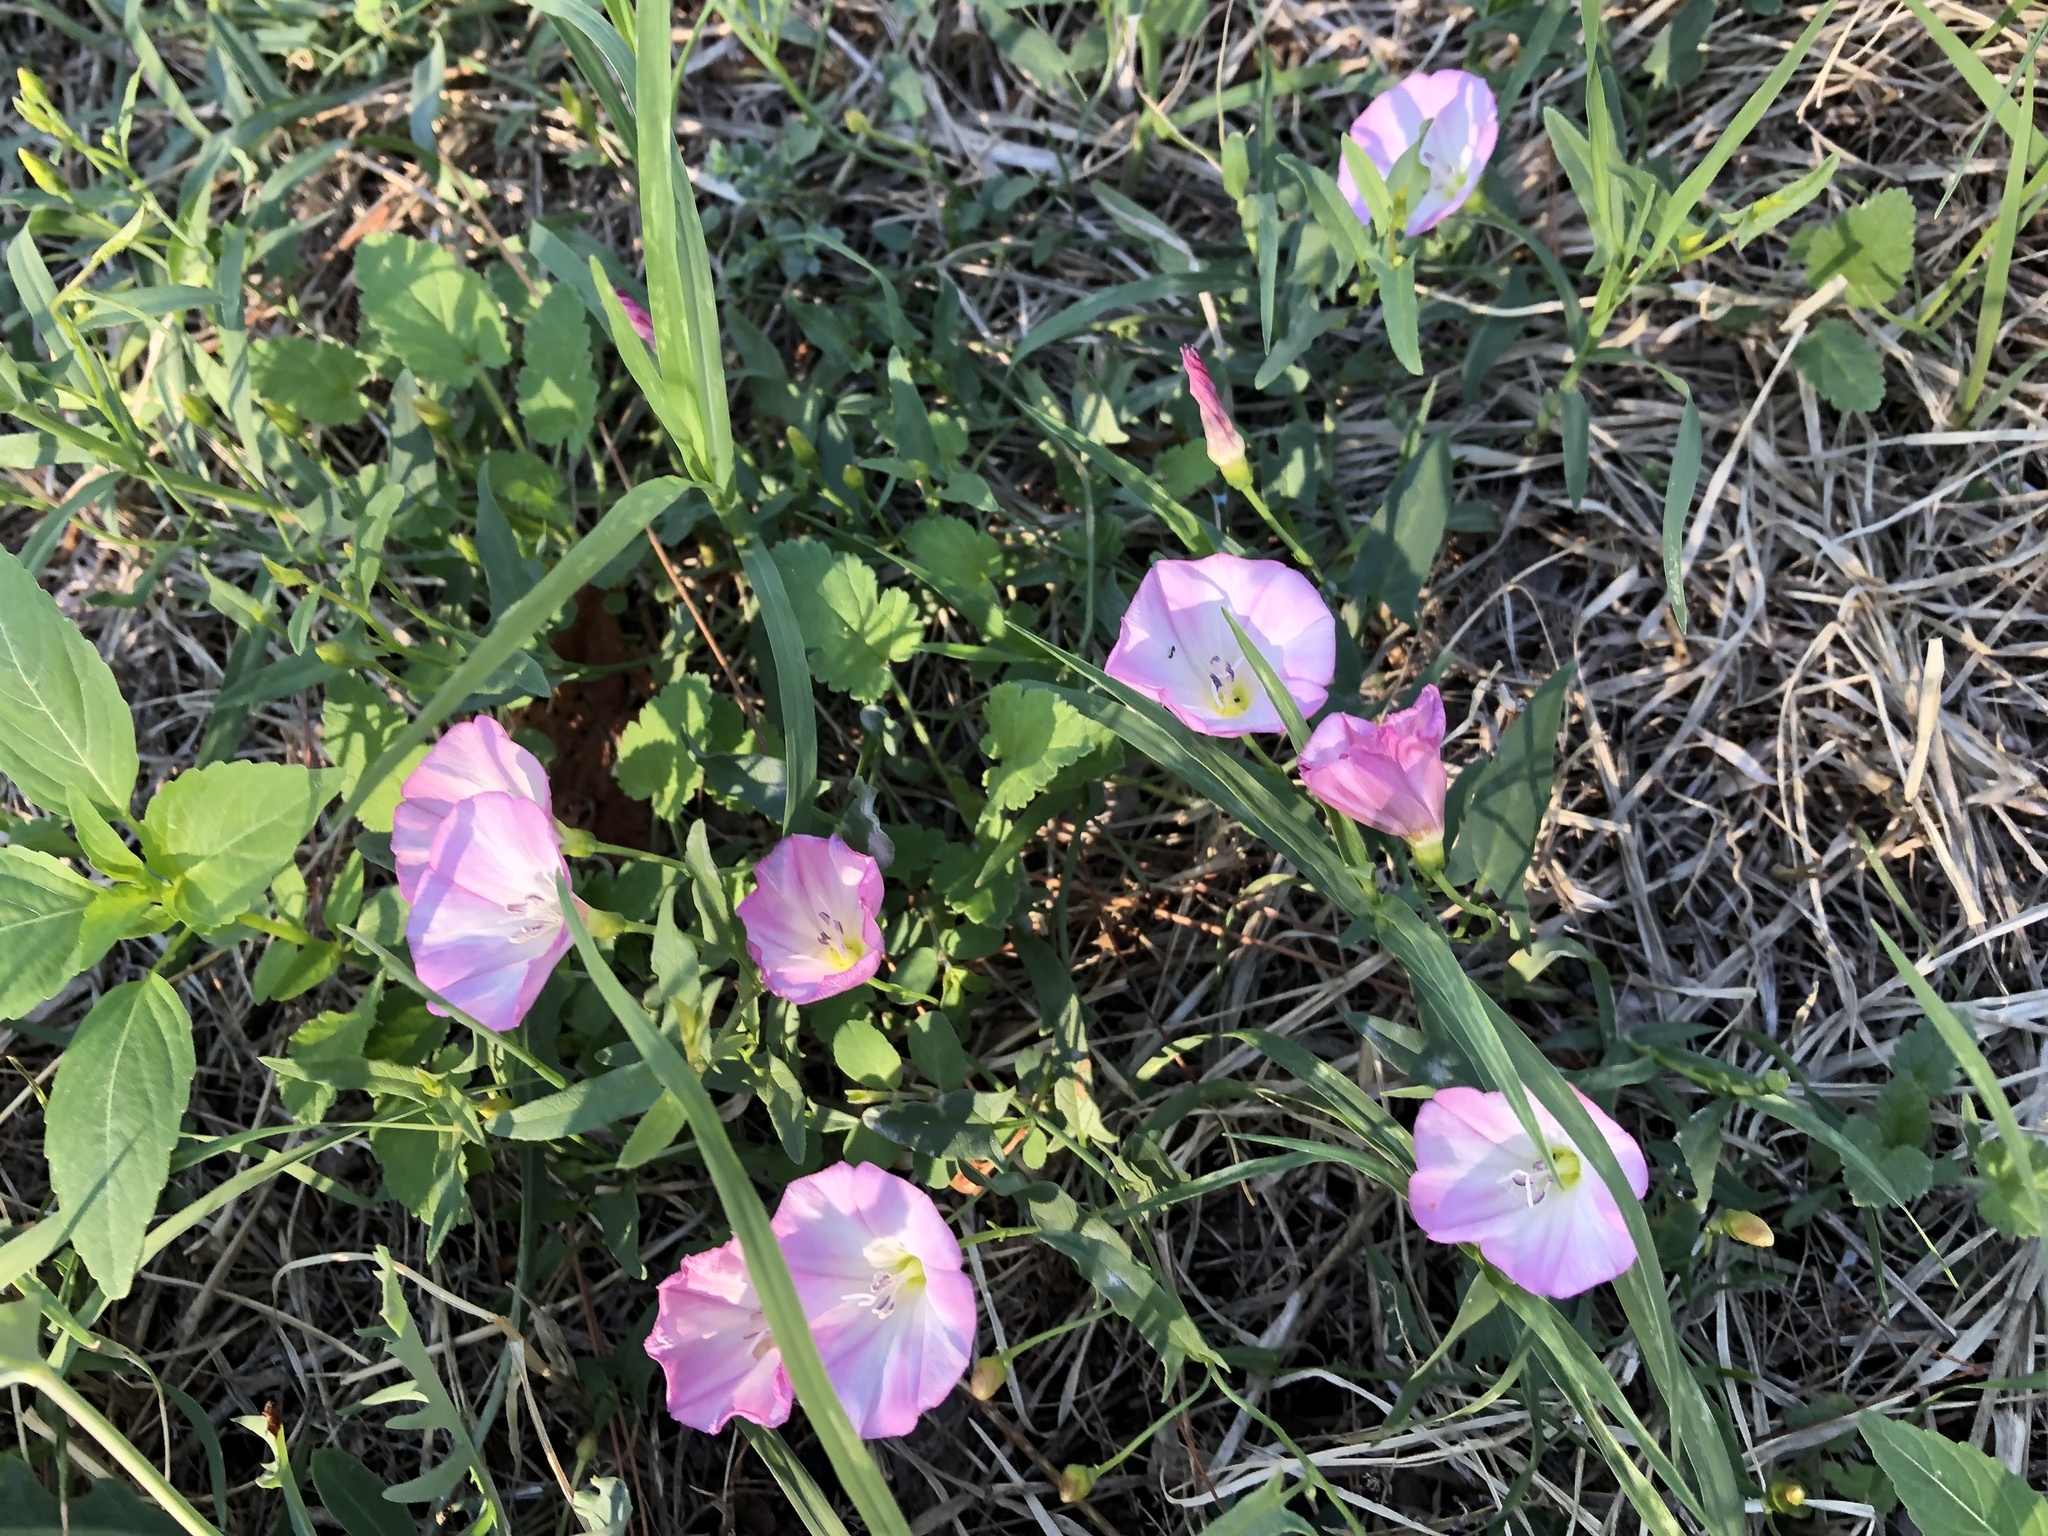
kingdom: Plantae
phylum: Tracheophyta
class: Magnoliopsida
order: Solanales
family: Convolvulaceae
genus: Convolvulus
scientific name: Convolvulus arvensis
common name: Field bindweed
